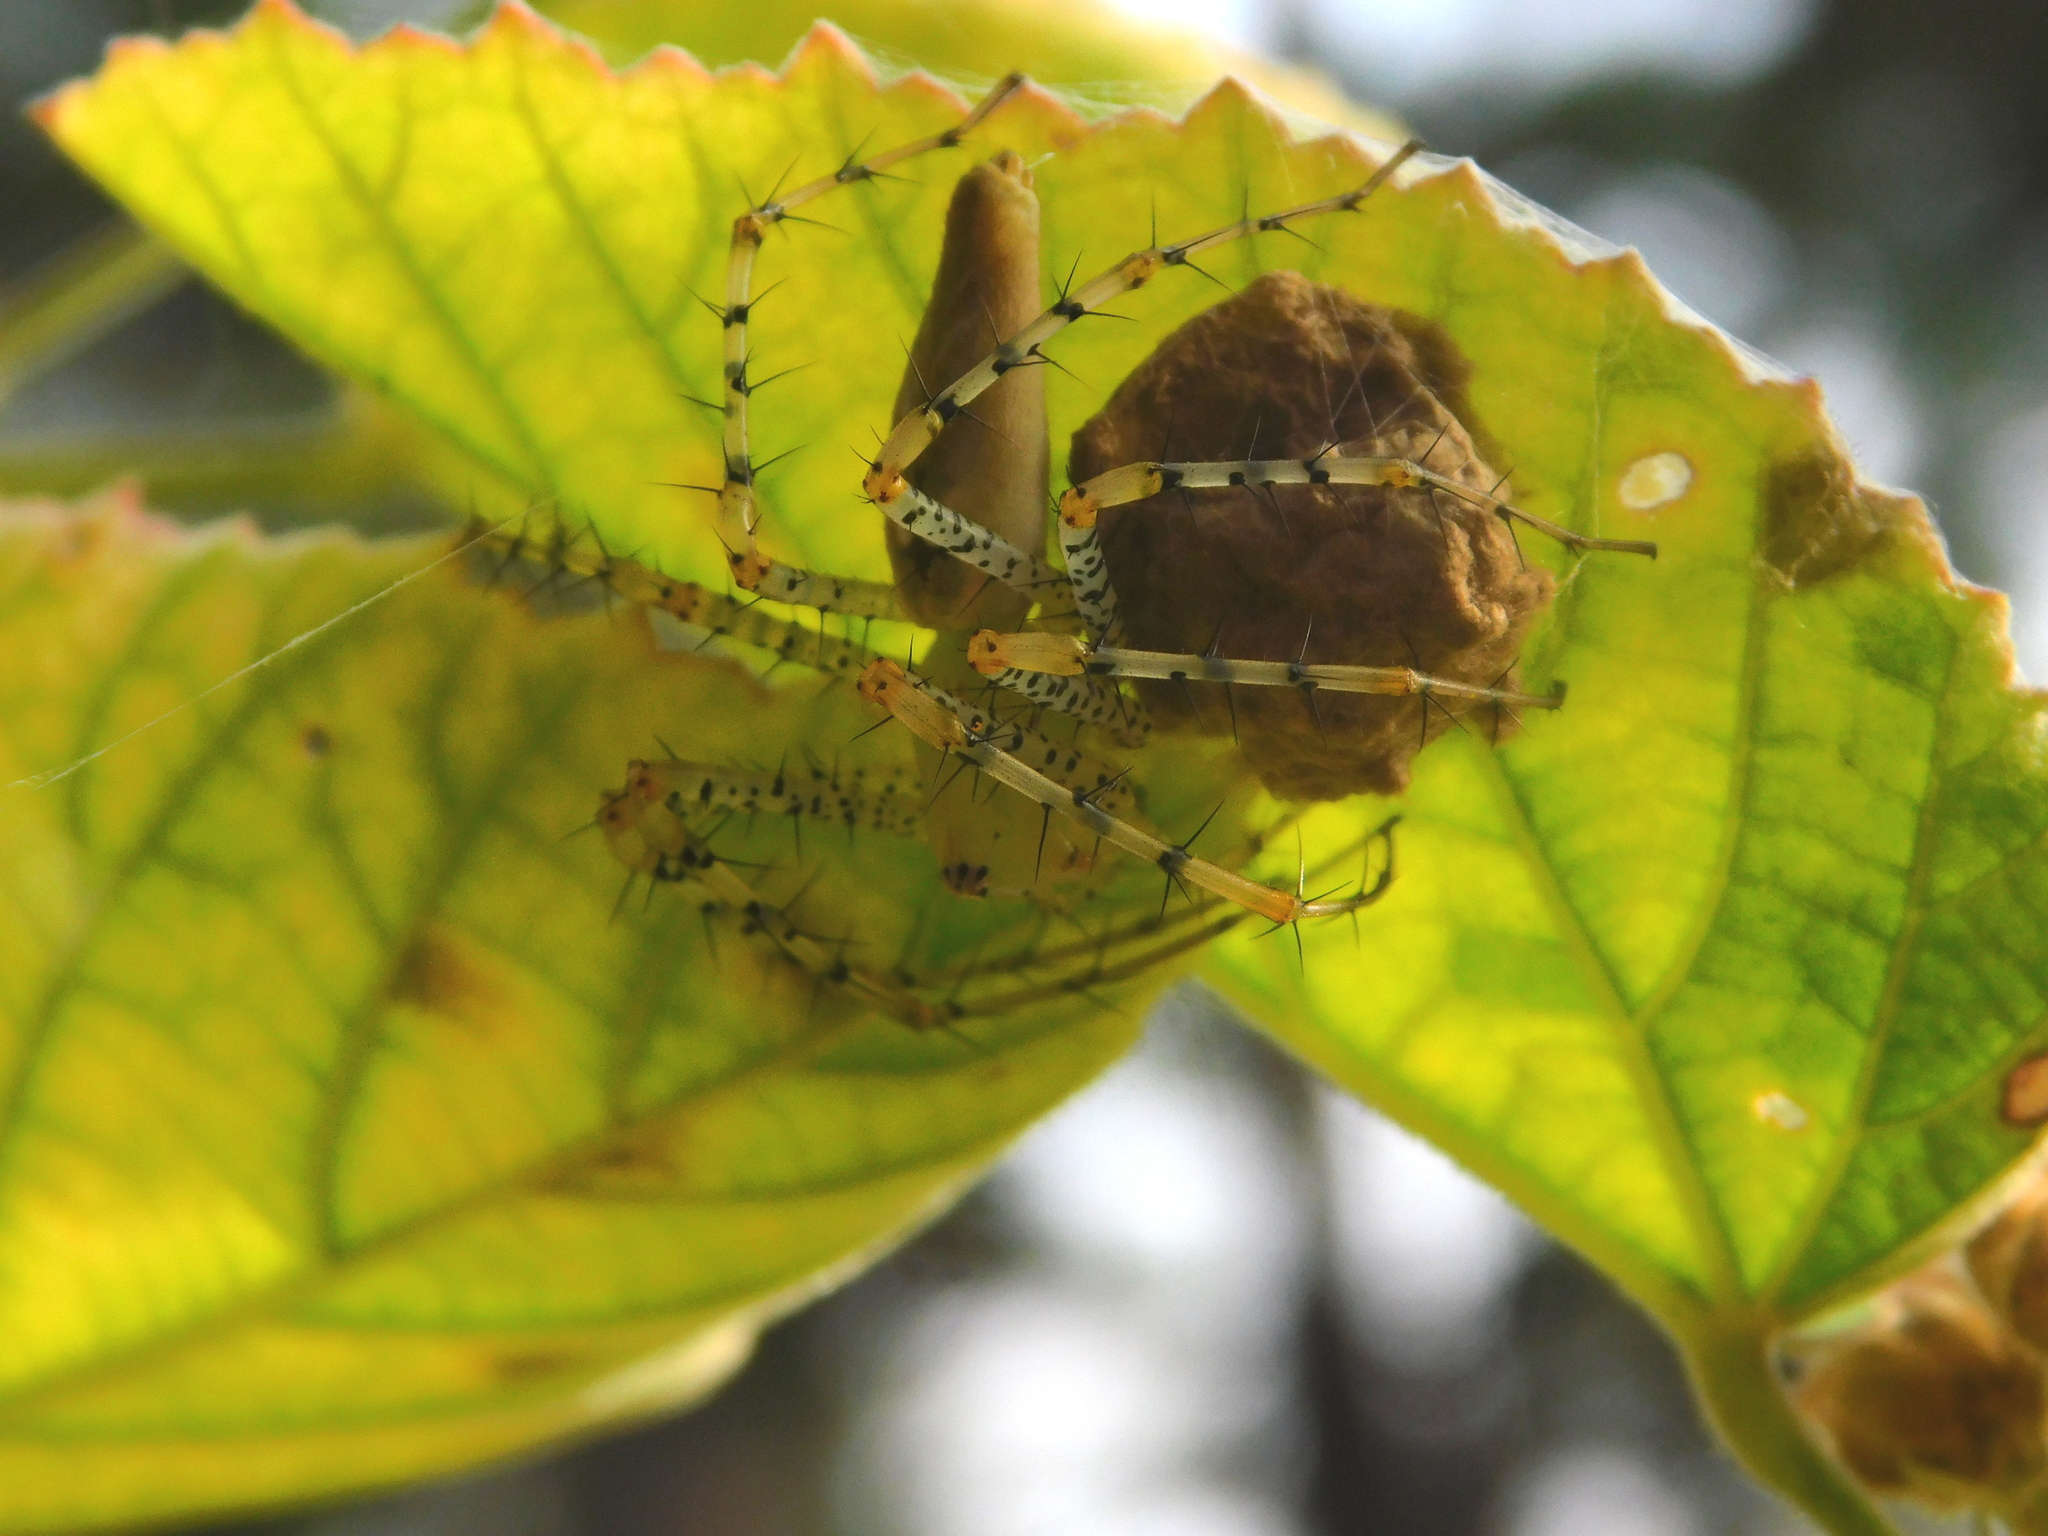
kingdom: Animalia
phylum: Arthropoda
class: Arachnida
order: Araneae
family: Oxyopidae
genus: Peucetia
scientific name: Peucetia viridans
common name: Lynx spiders
